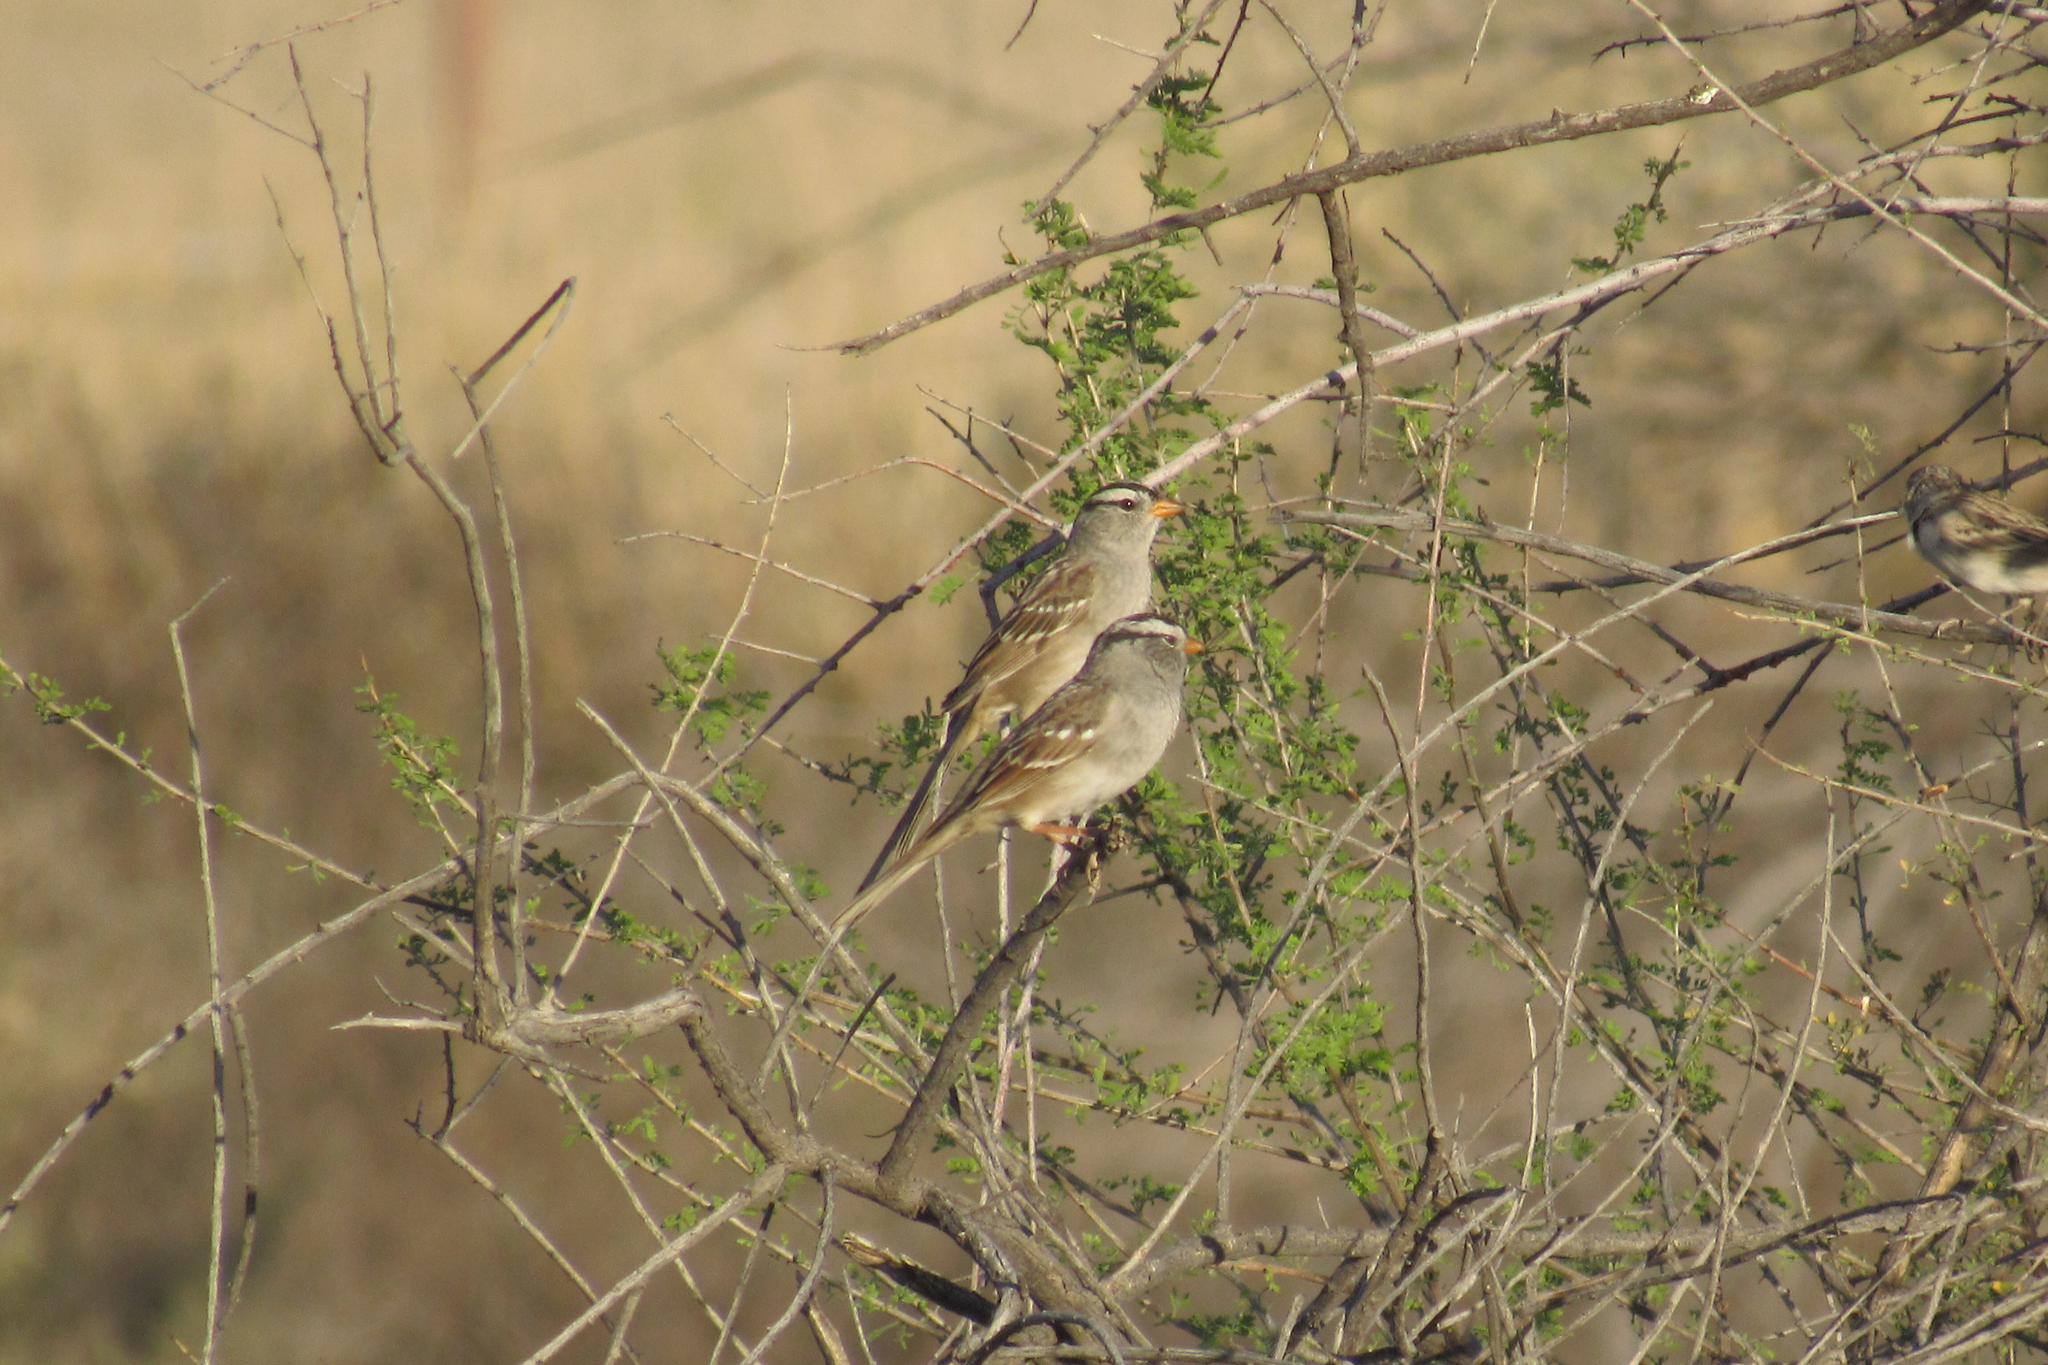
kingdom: Animalia
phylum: Chordata
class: Aves
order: Passeriformes
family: Passerellidae
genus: Zonotrichia
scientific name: Zonotrichia leucophrys
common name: White-crowned sparrow
